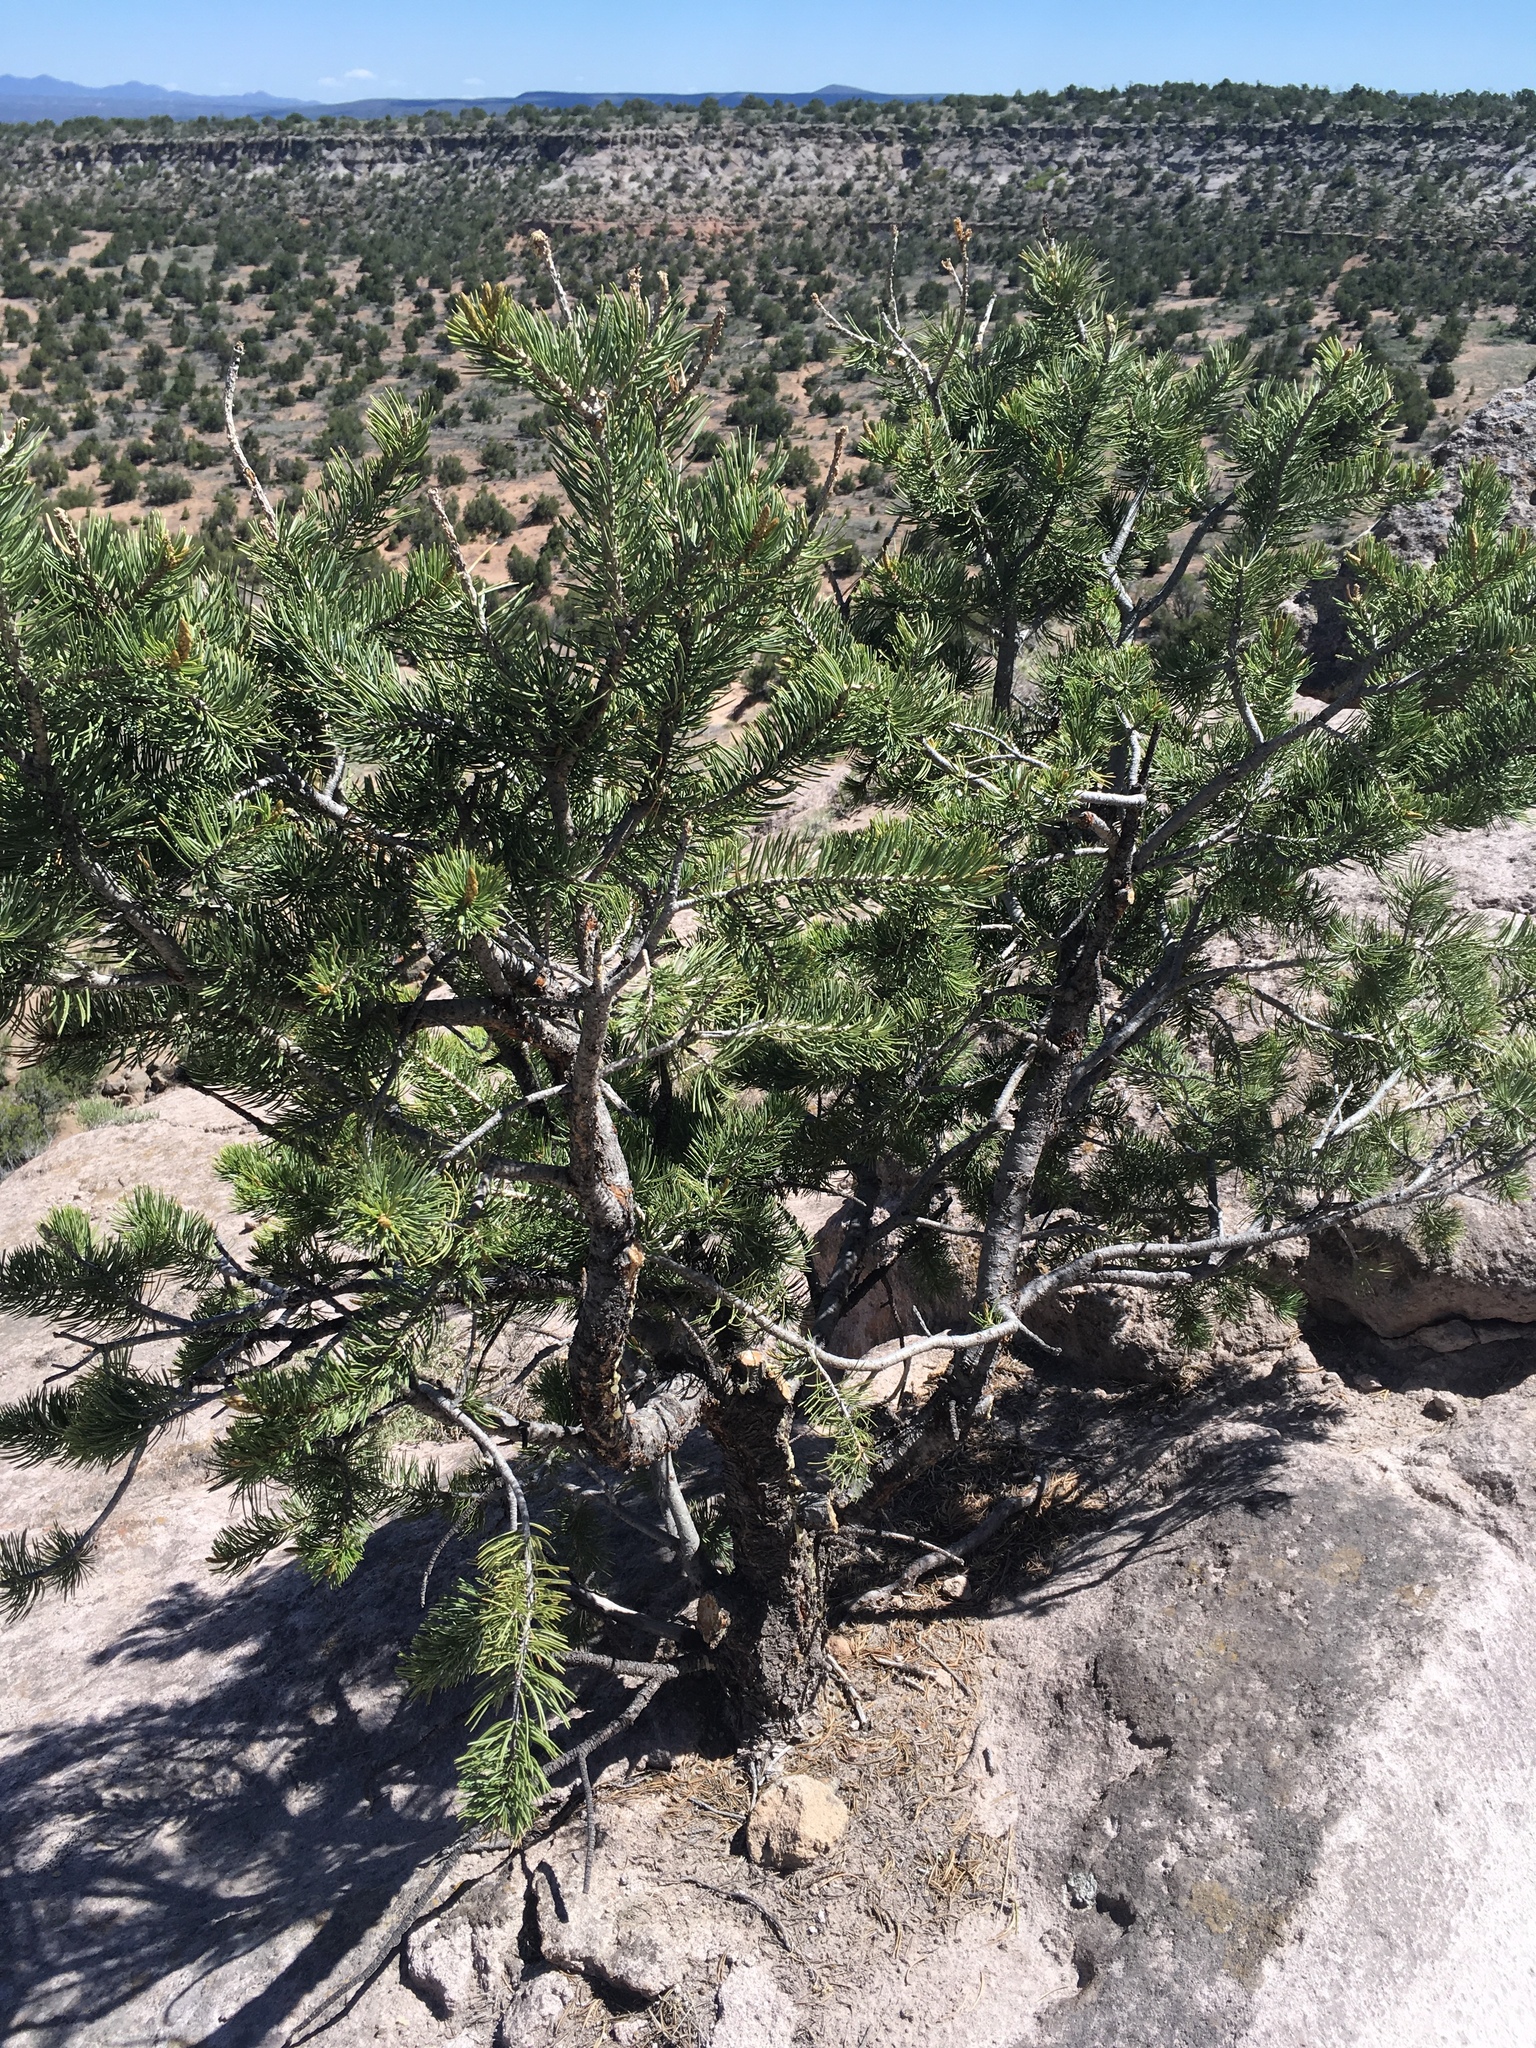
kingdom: Plantae
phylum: Tracheophyta
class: Pinopsida
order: Pinales
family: Pinaceae
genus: Pinus
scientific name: Pinus edulis
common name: Colorado pinyon
